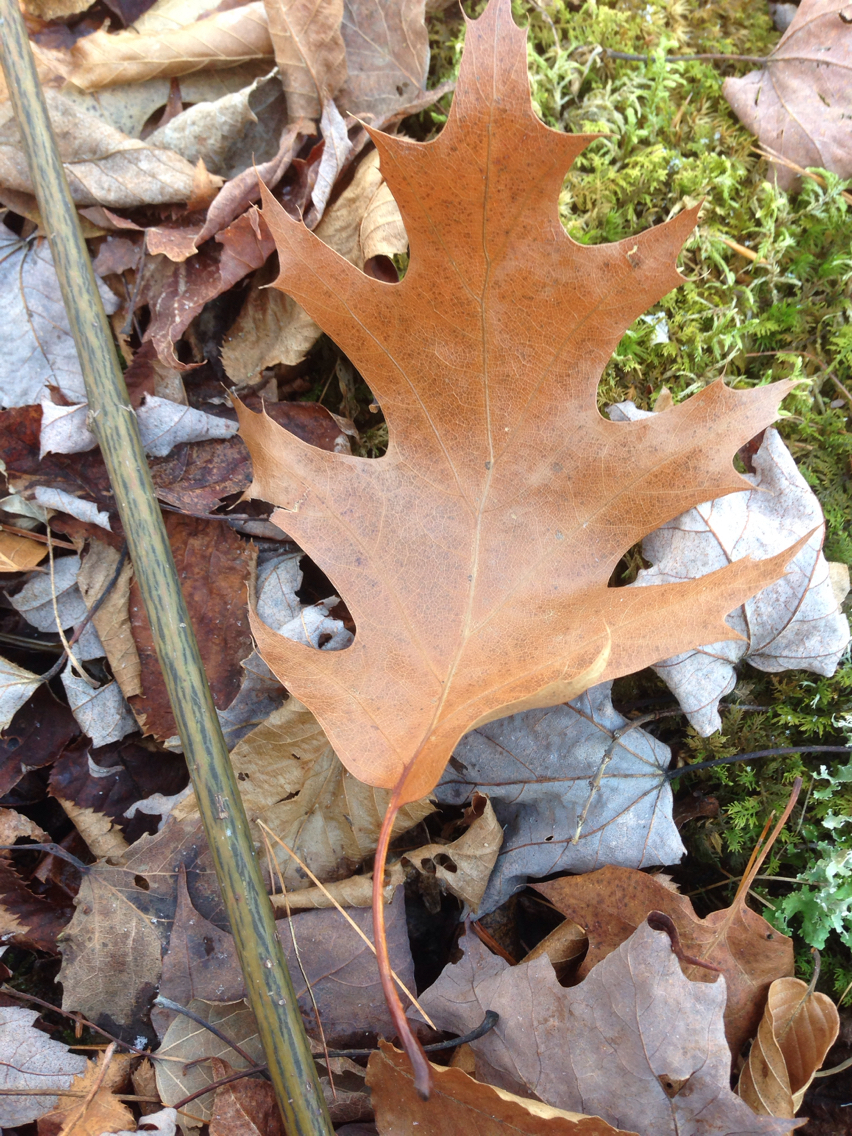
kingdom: Plantae
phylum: Tracheophyta
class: Magnoliopsida
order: Fagales
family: Fagaceae
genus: Quercus
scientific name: Quercus rubra
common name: Red oak
